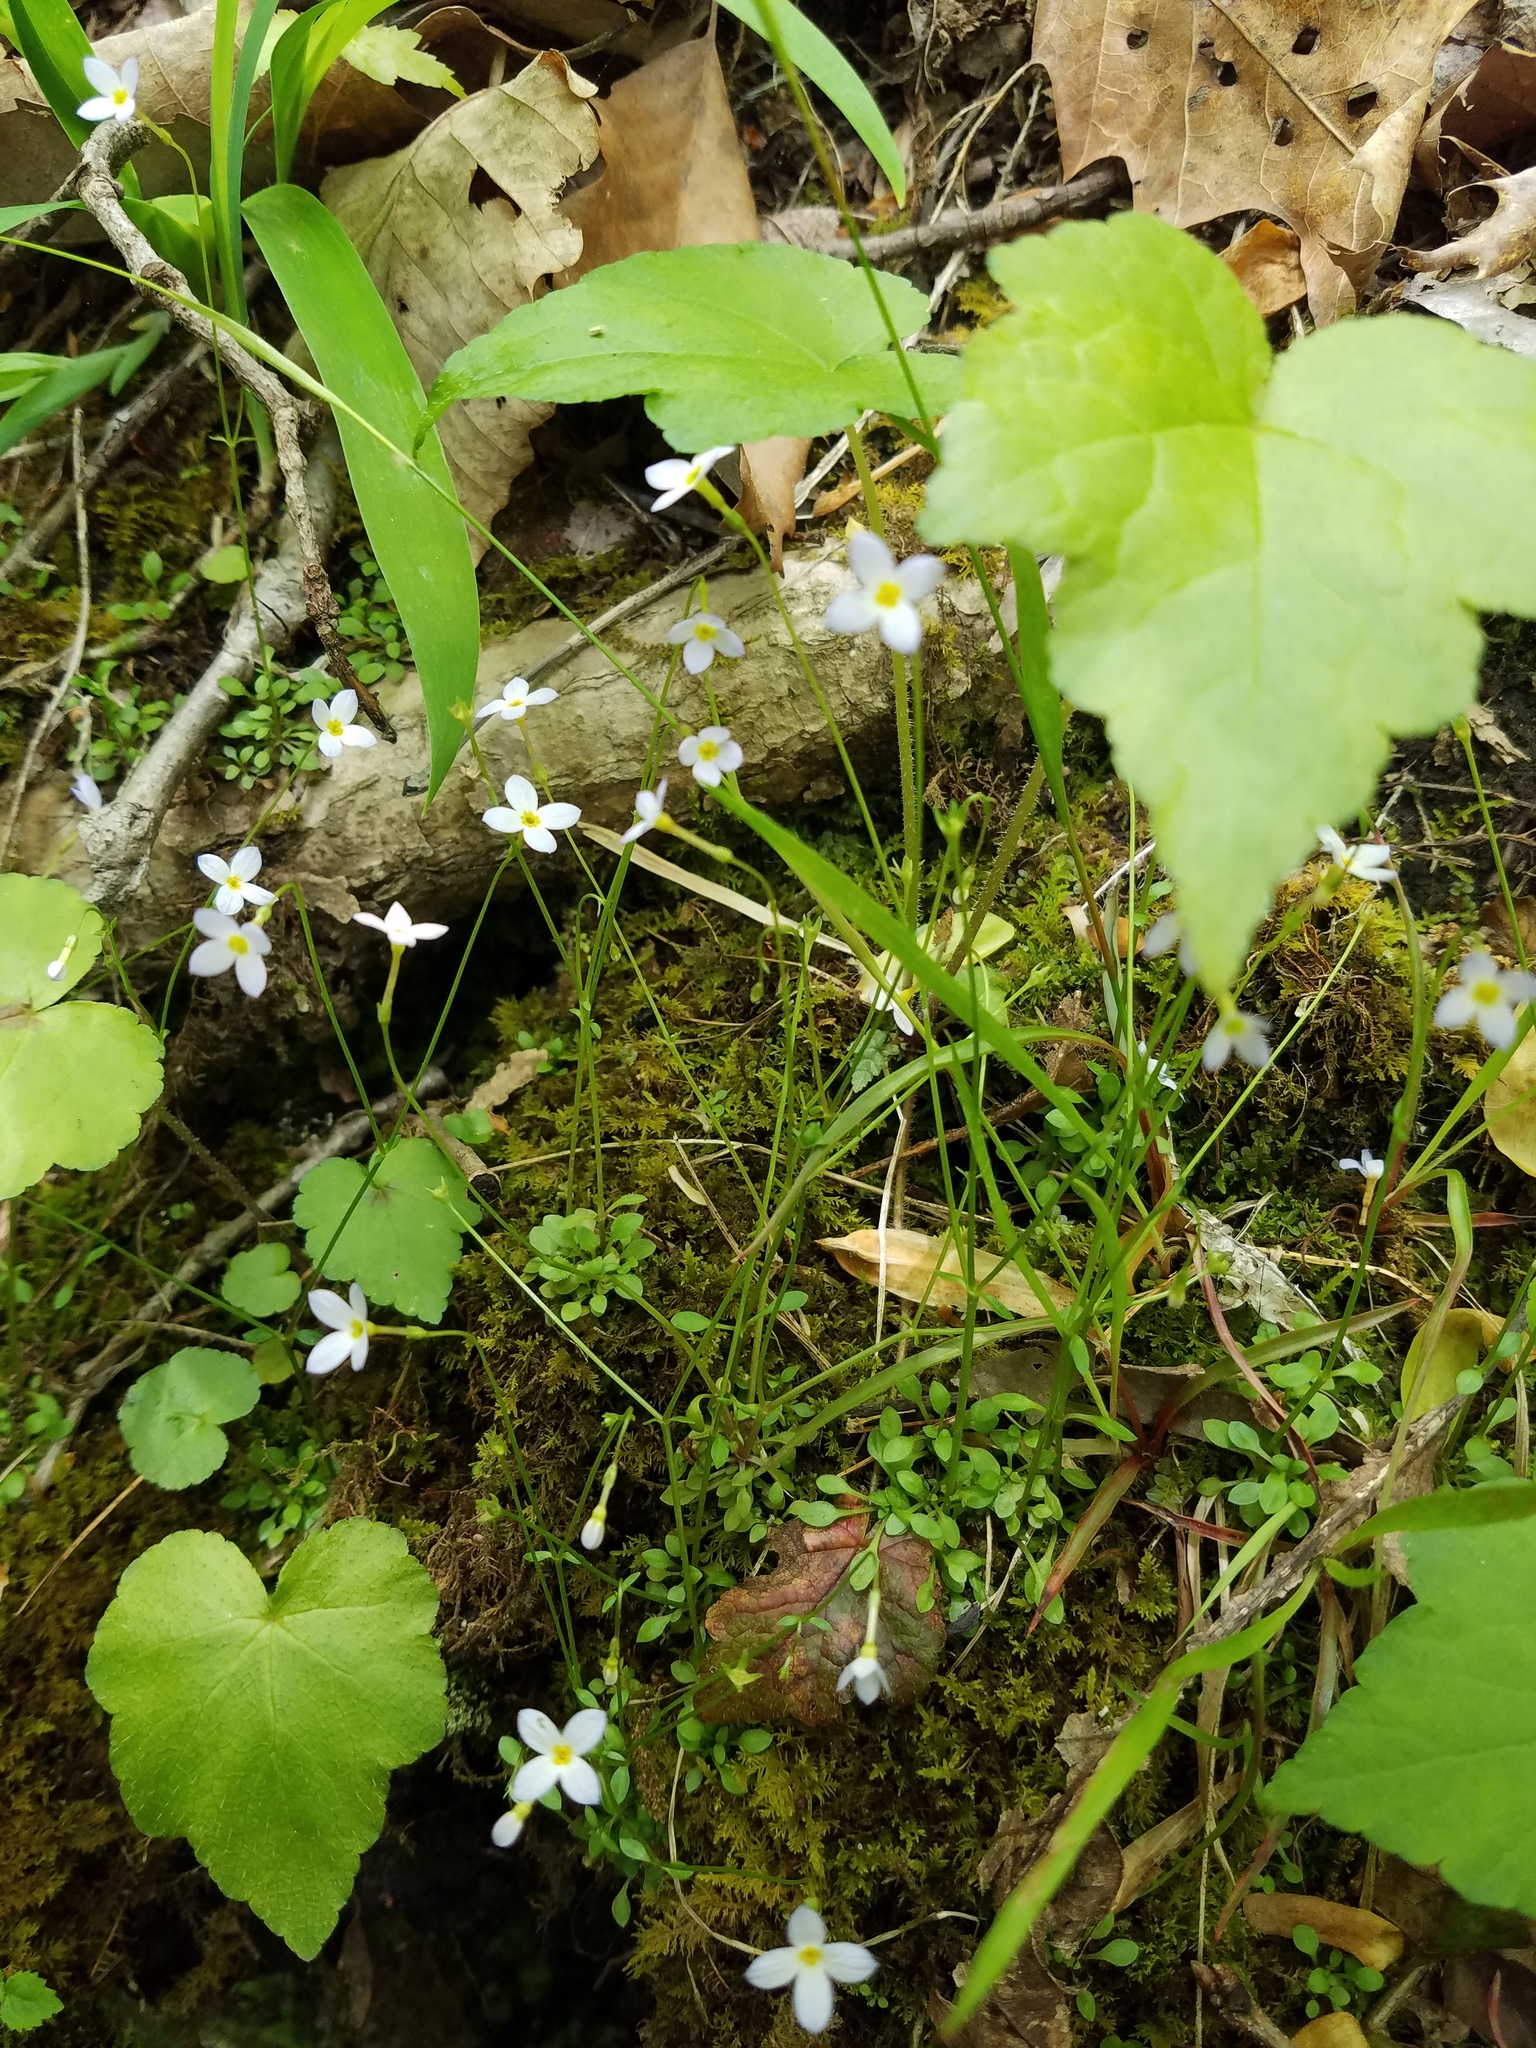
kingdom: Plantae
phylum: Tracheophyta
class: Magnoliopsida
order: Gentianales
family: Rubiaceae
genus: Houstonia
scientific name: Houstonia caerulea
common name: Bluets
